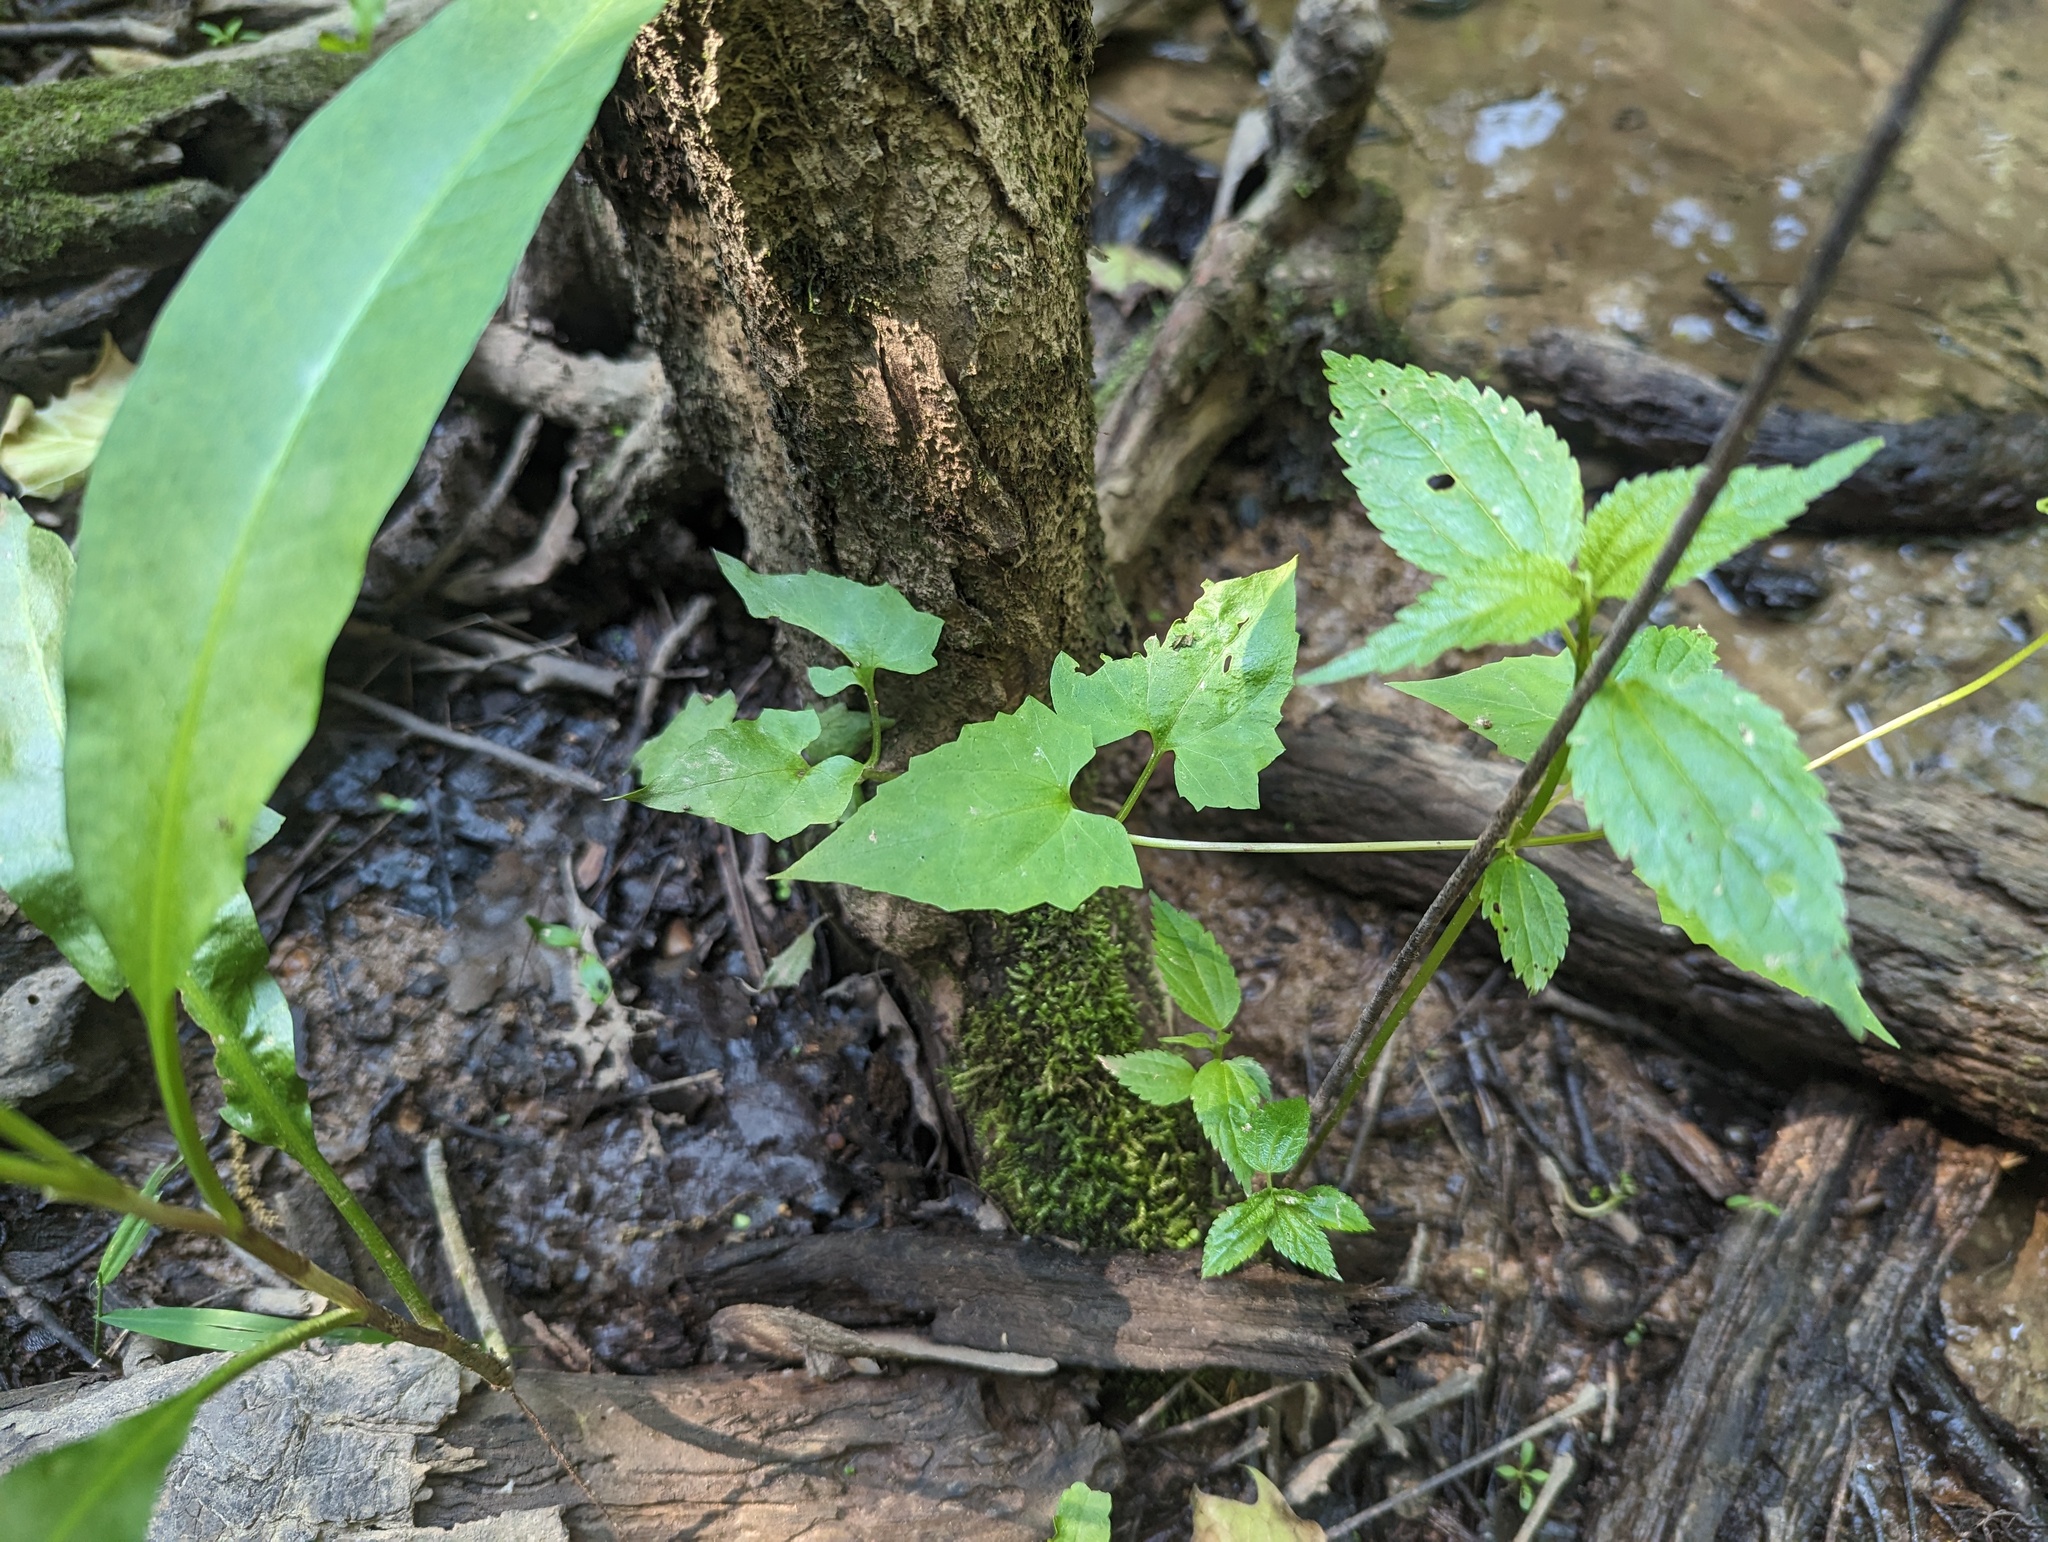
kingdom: Plantae
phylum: Tracheophyta
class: Magnoliopsida
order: Asterales
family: Asteraceae
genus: Mikania
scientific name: Mikania scandens
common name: Climbing hempvine
